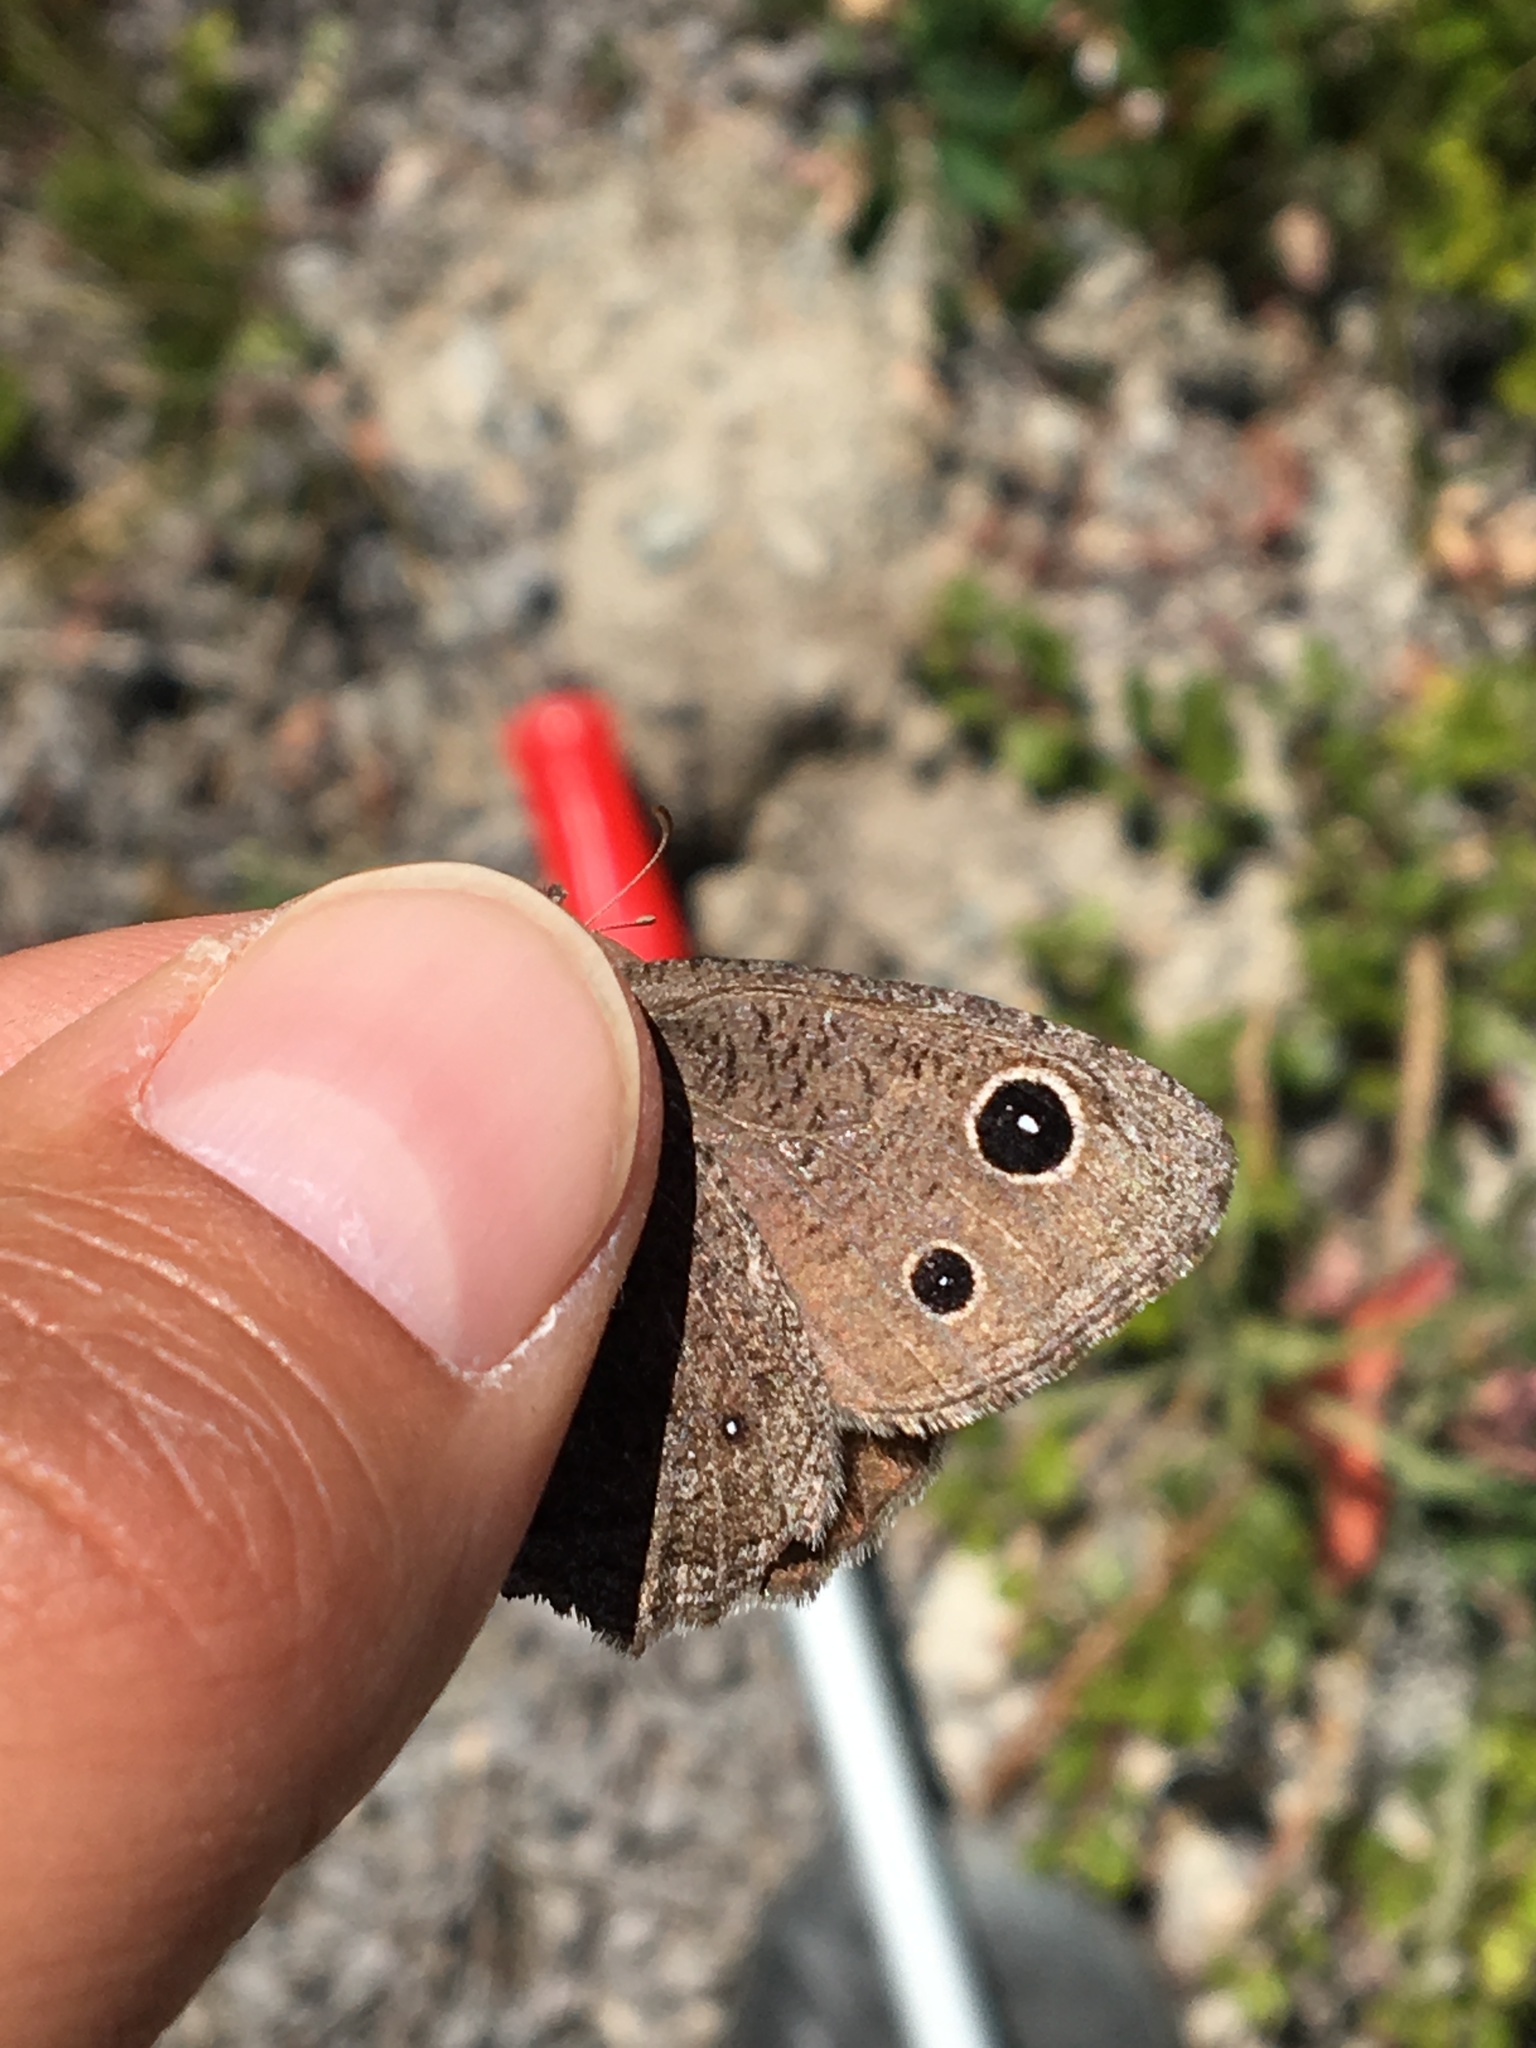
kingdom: Animalia
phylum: Arthropoda
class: Insecta
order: Lepidoptera
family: Nymphalidae
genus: Cercyonis
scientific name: Cercyonis oetus
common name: Small wood-nymph
